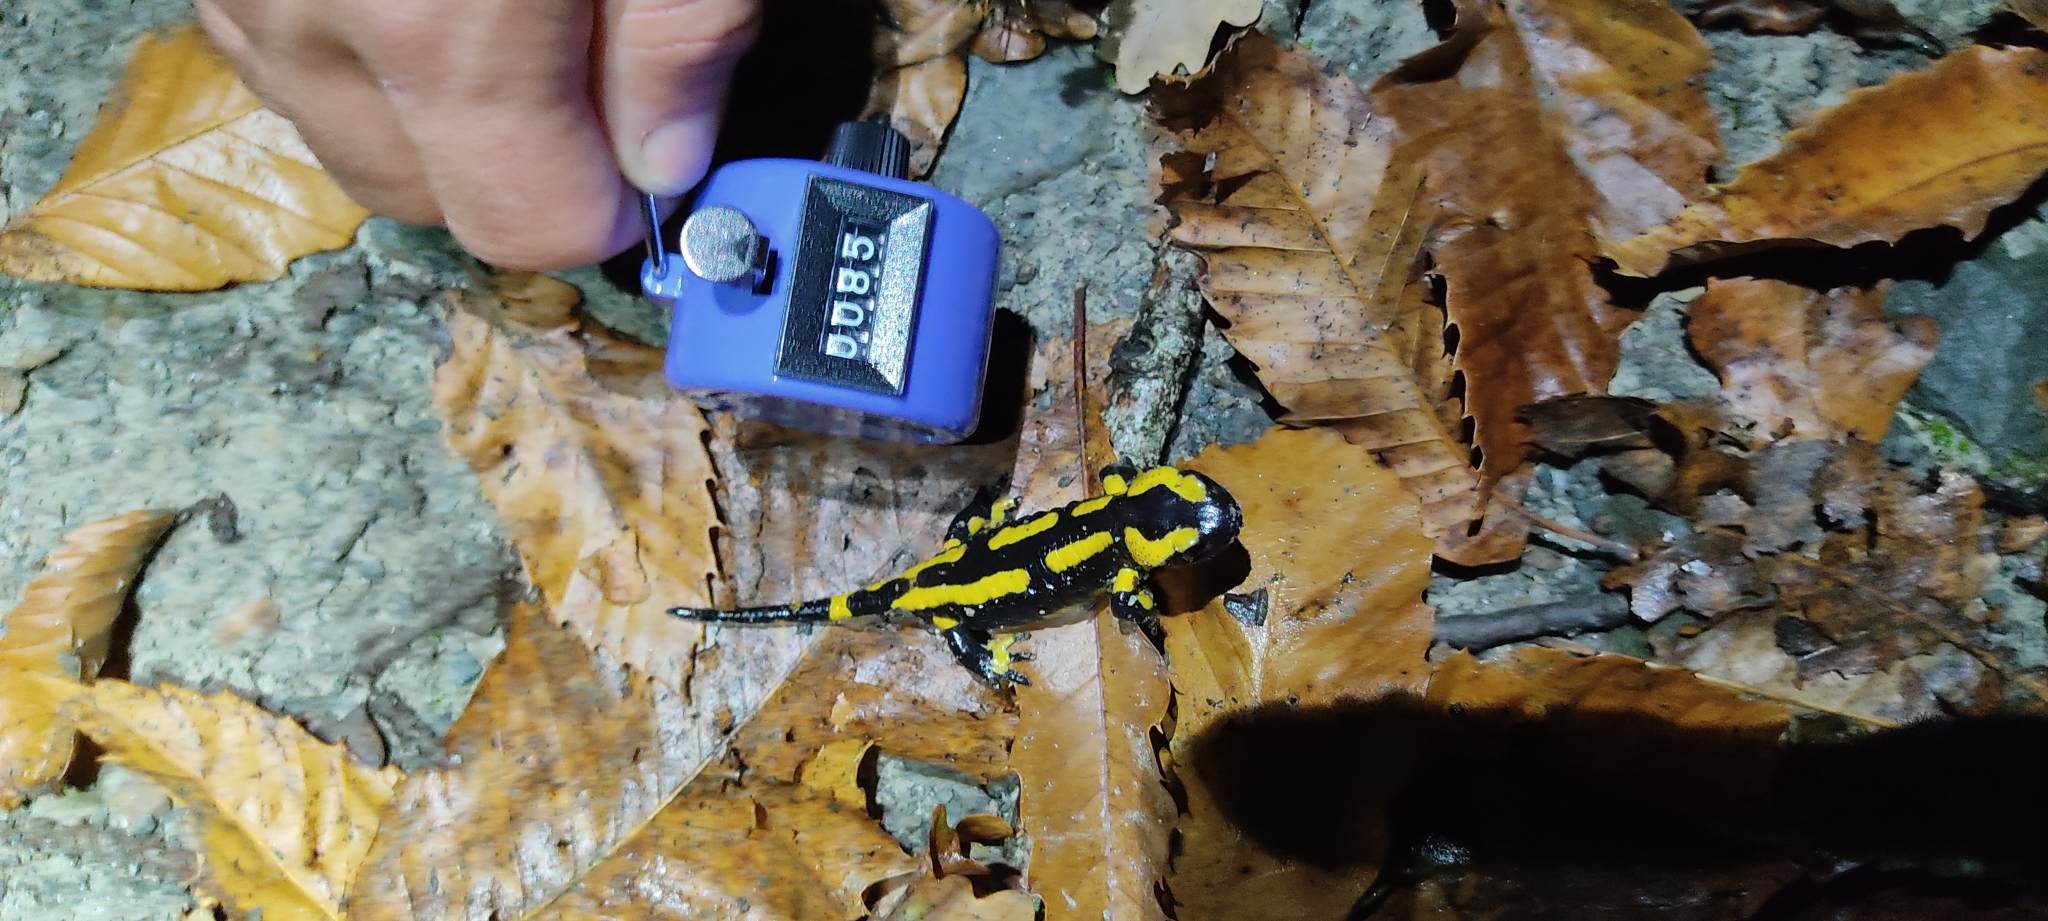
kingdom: Animalia
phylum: Chordata
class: Amphibia
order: Caudata
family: Salamandridae
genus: Salamandra
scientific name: Salamandra salamandra
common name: Fire salamander
